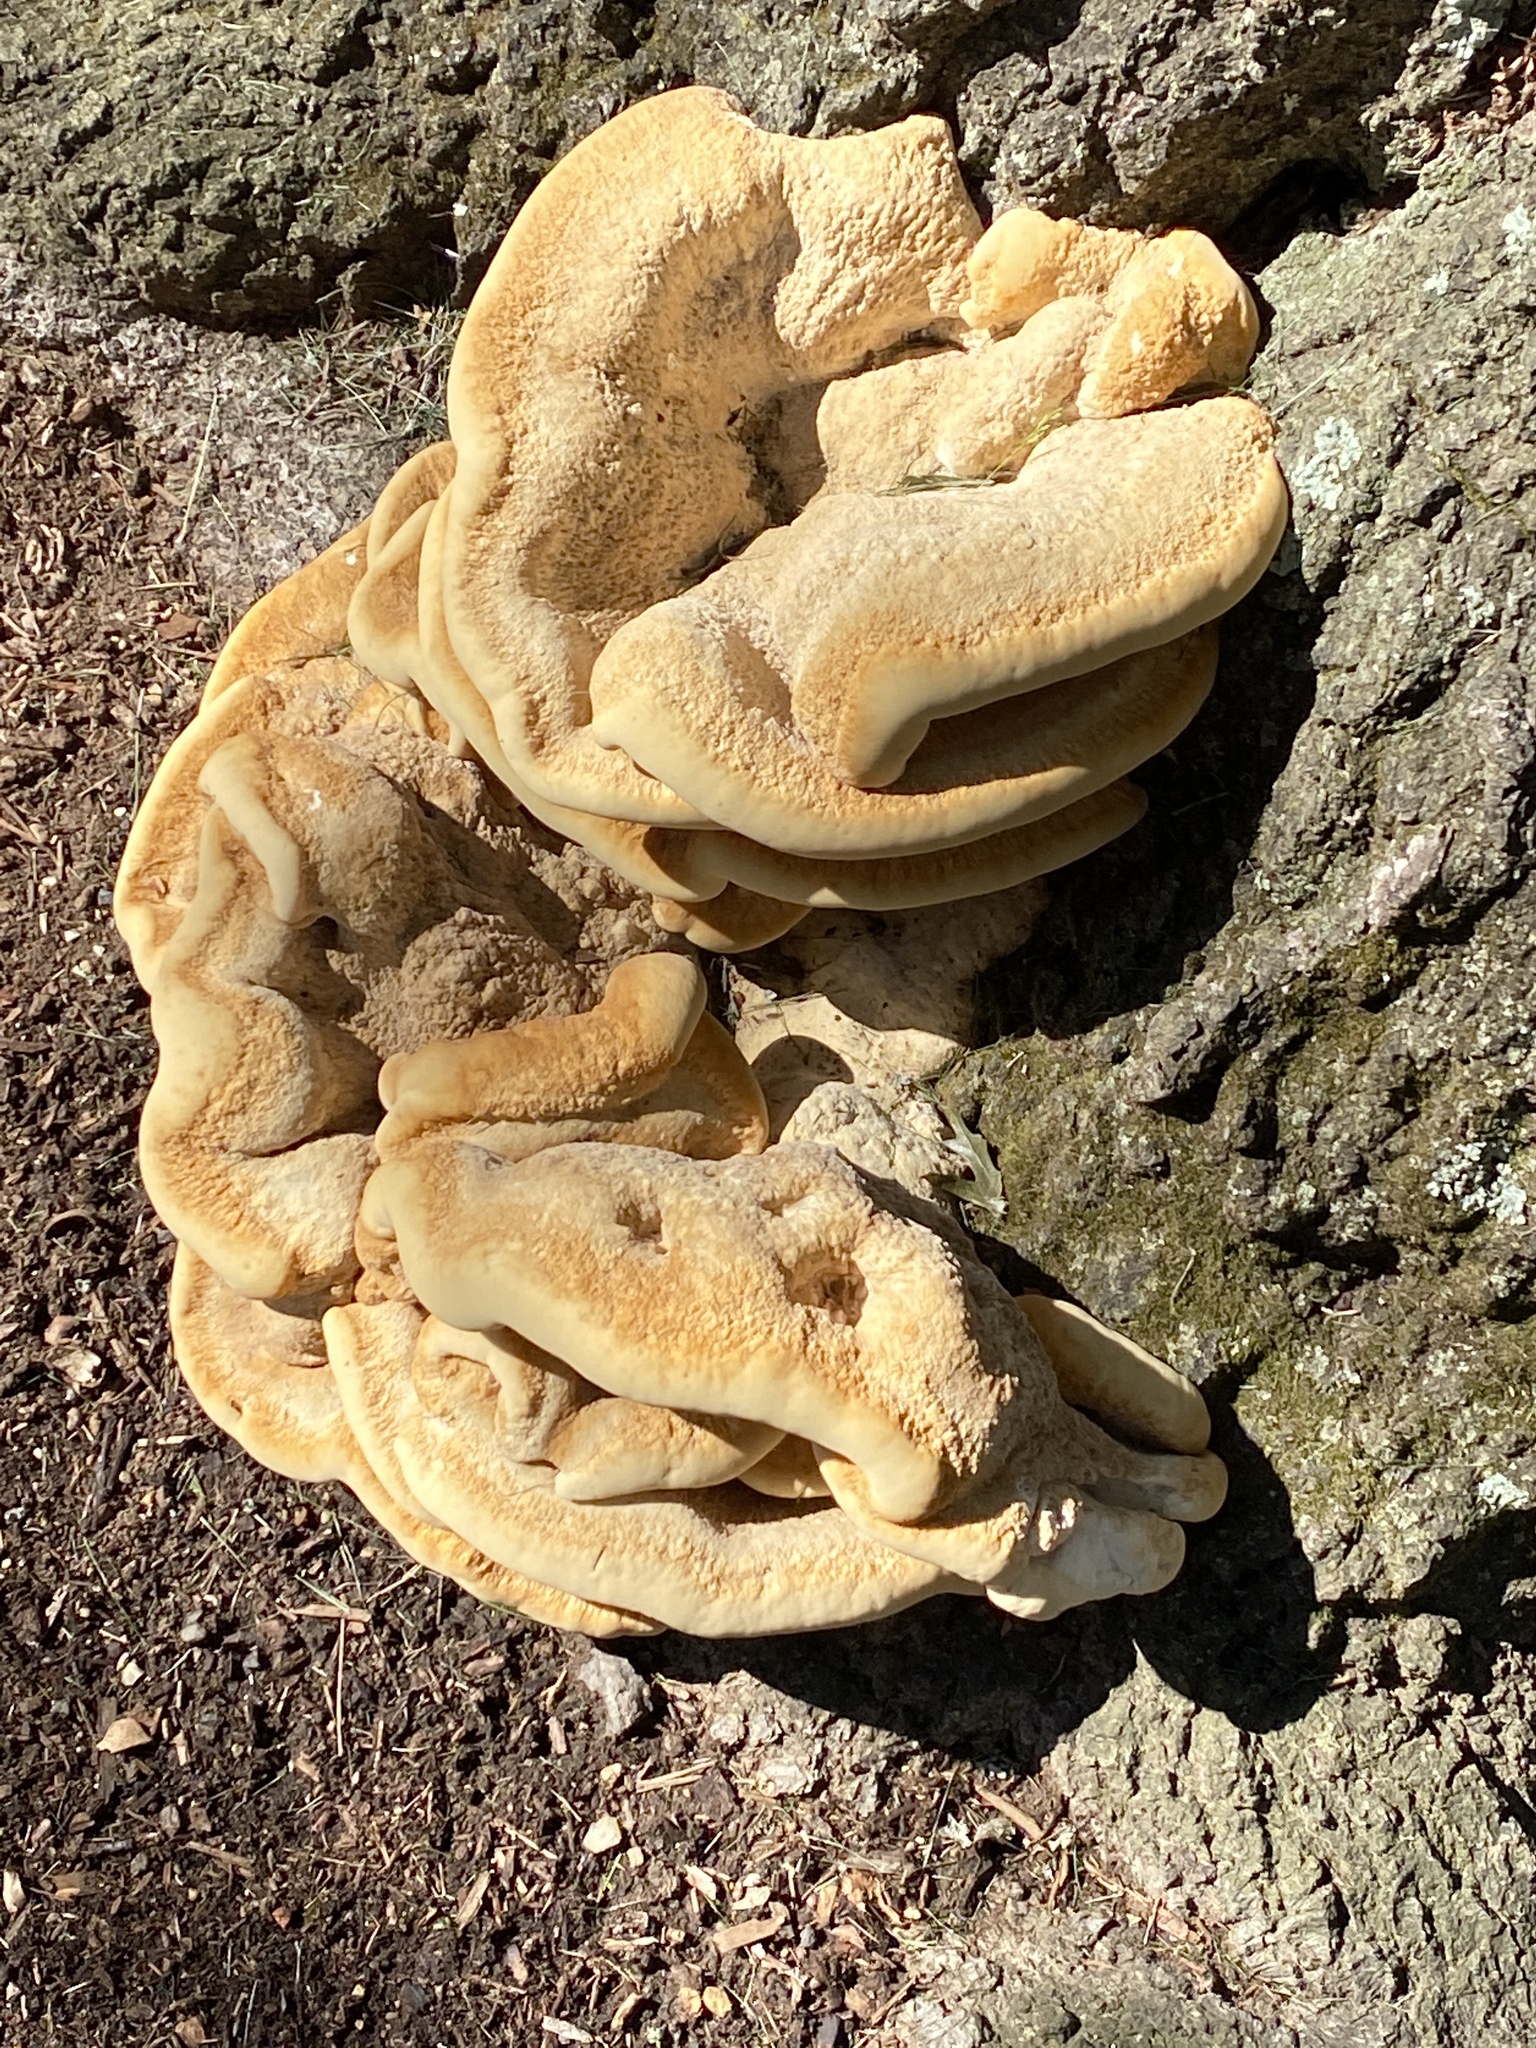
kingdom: Fungi
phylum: Basidiomycota
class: Agaricomycetes
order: Russulales
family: Bondarzewiaceae
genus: Bondarzewia
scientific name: Bondarzewia berkeleyi
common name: Berkeley's polypore
